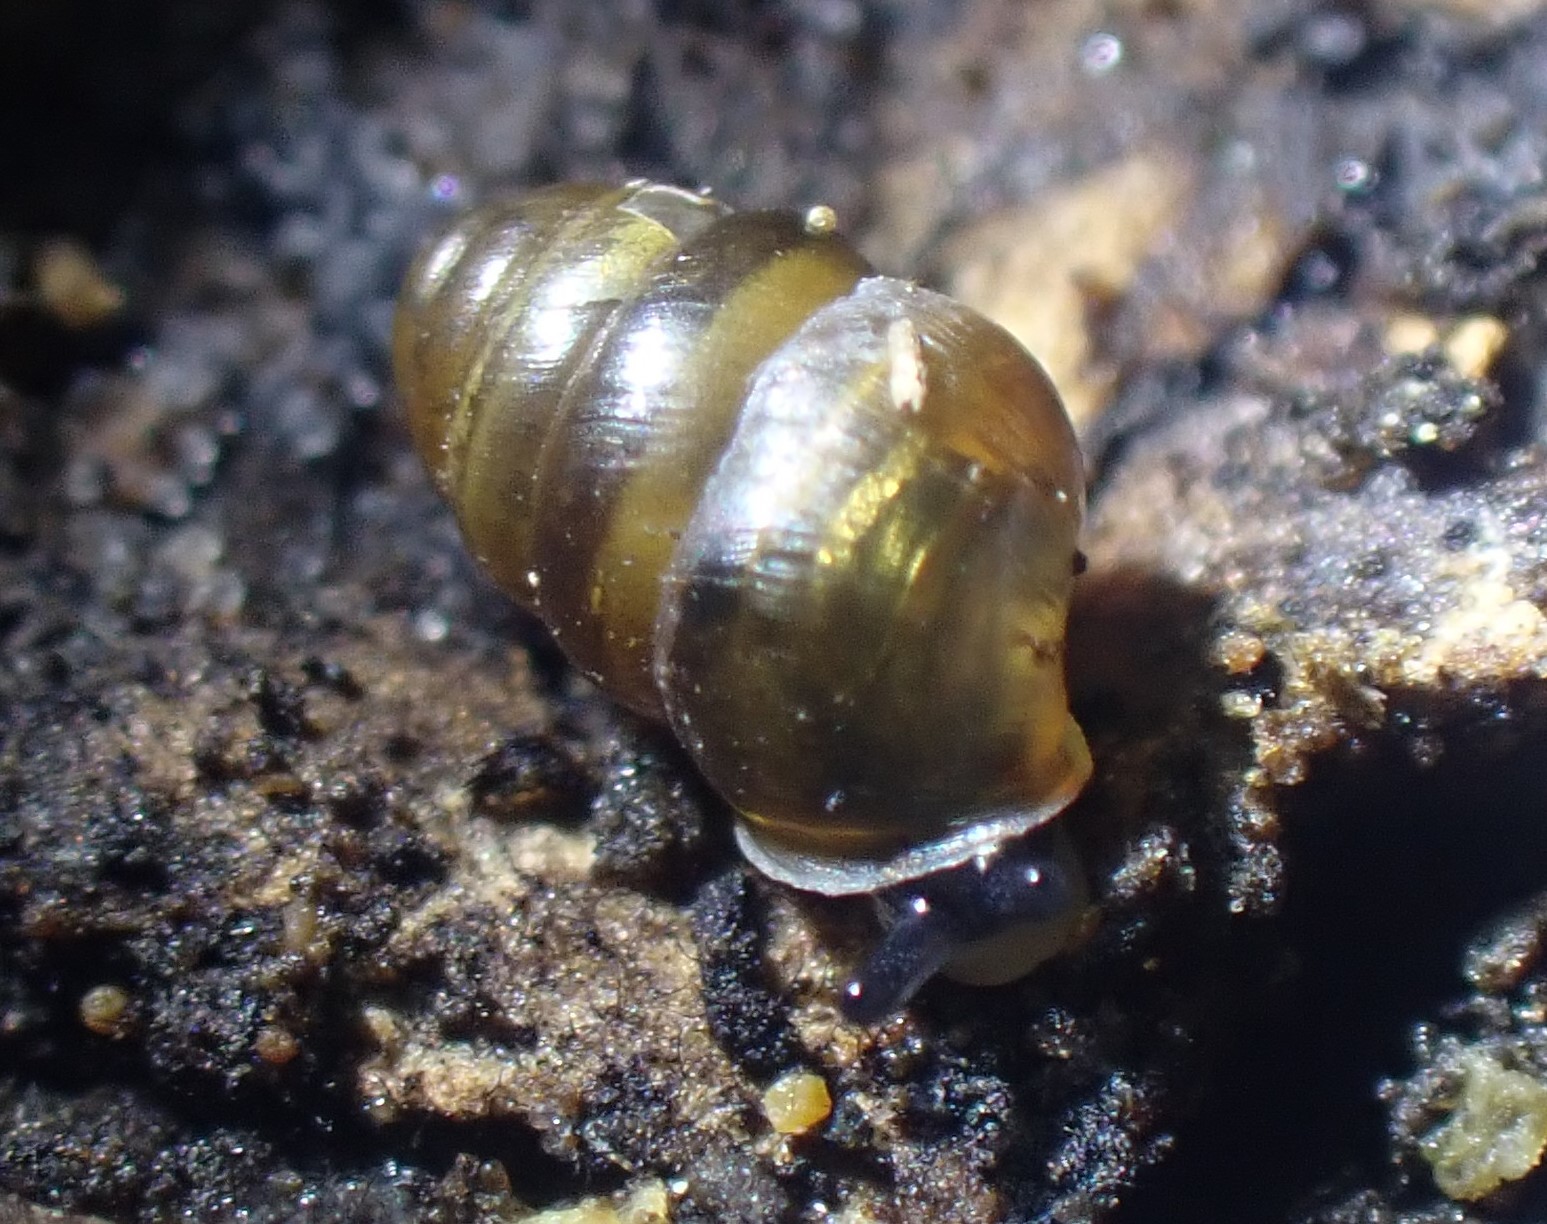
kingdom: Animalia
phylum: Mollusca
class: Gastropoda
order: Stylommatophora
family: Lauriidae
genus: Lauria
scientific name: Lauria cylindracea
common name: Common chrysalis snail
